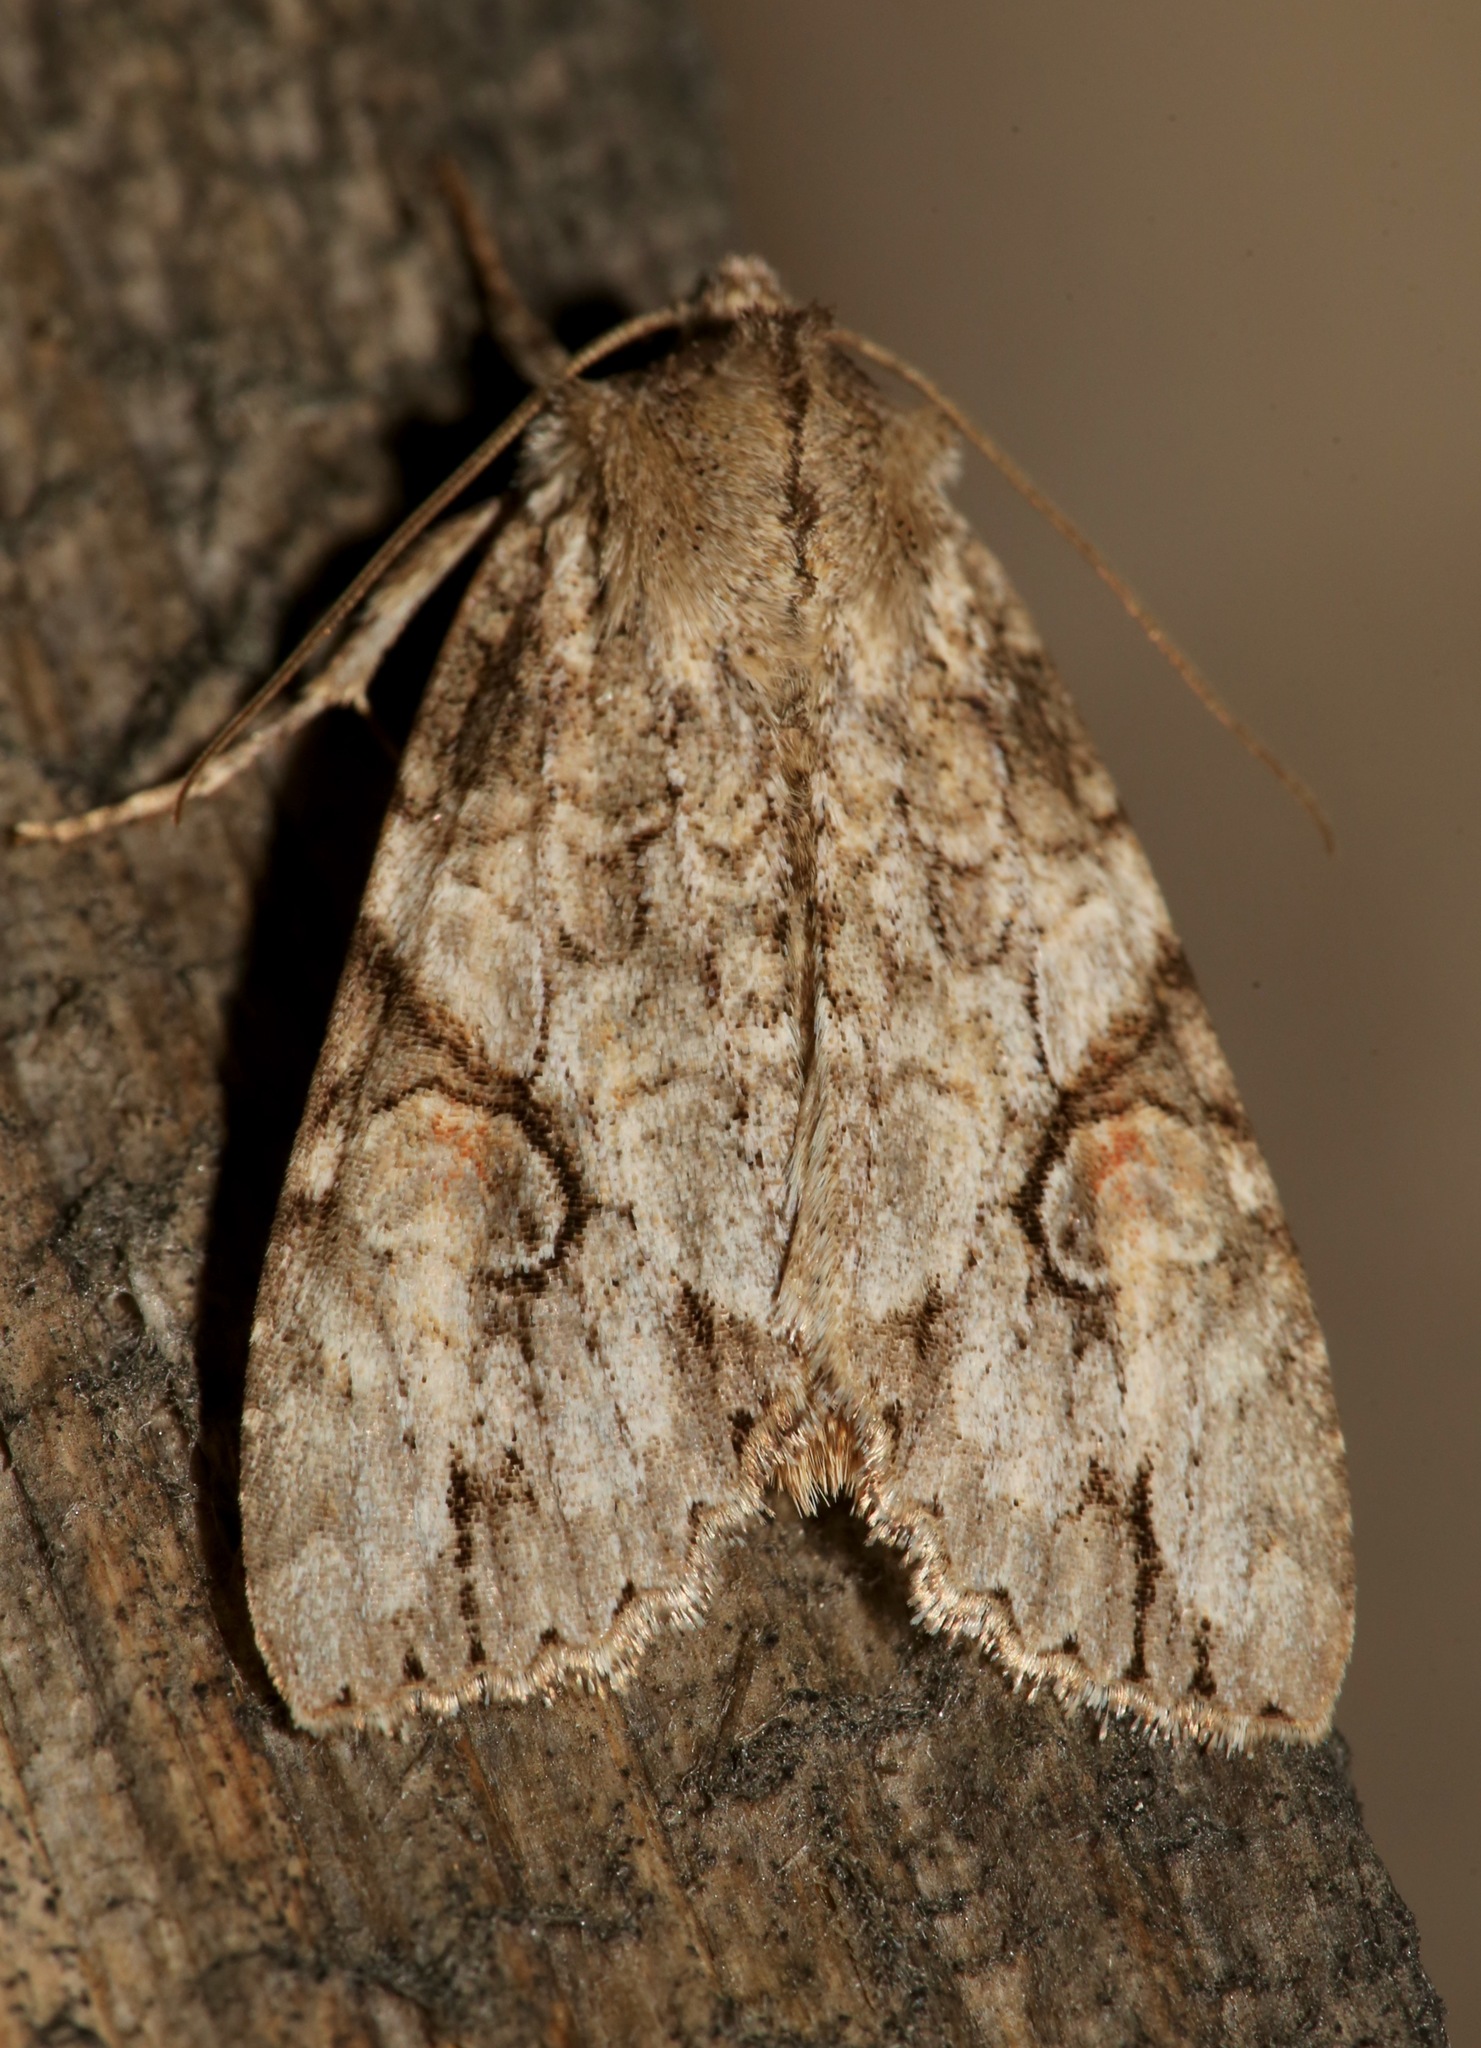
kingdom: Animalia
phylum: Arthropoda
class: Insecta
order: Lepidoptera
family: Noctuidae
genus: Achatia
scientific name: Achatia latex
